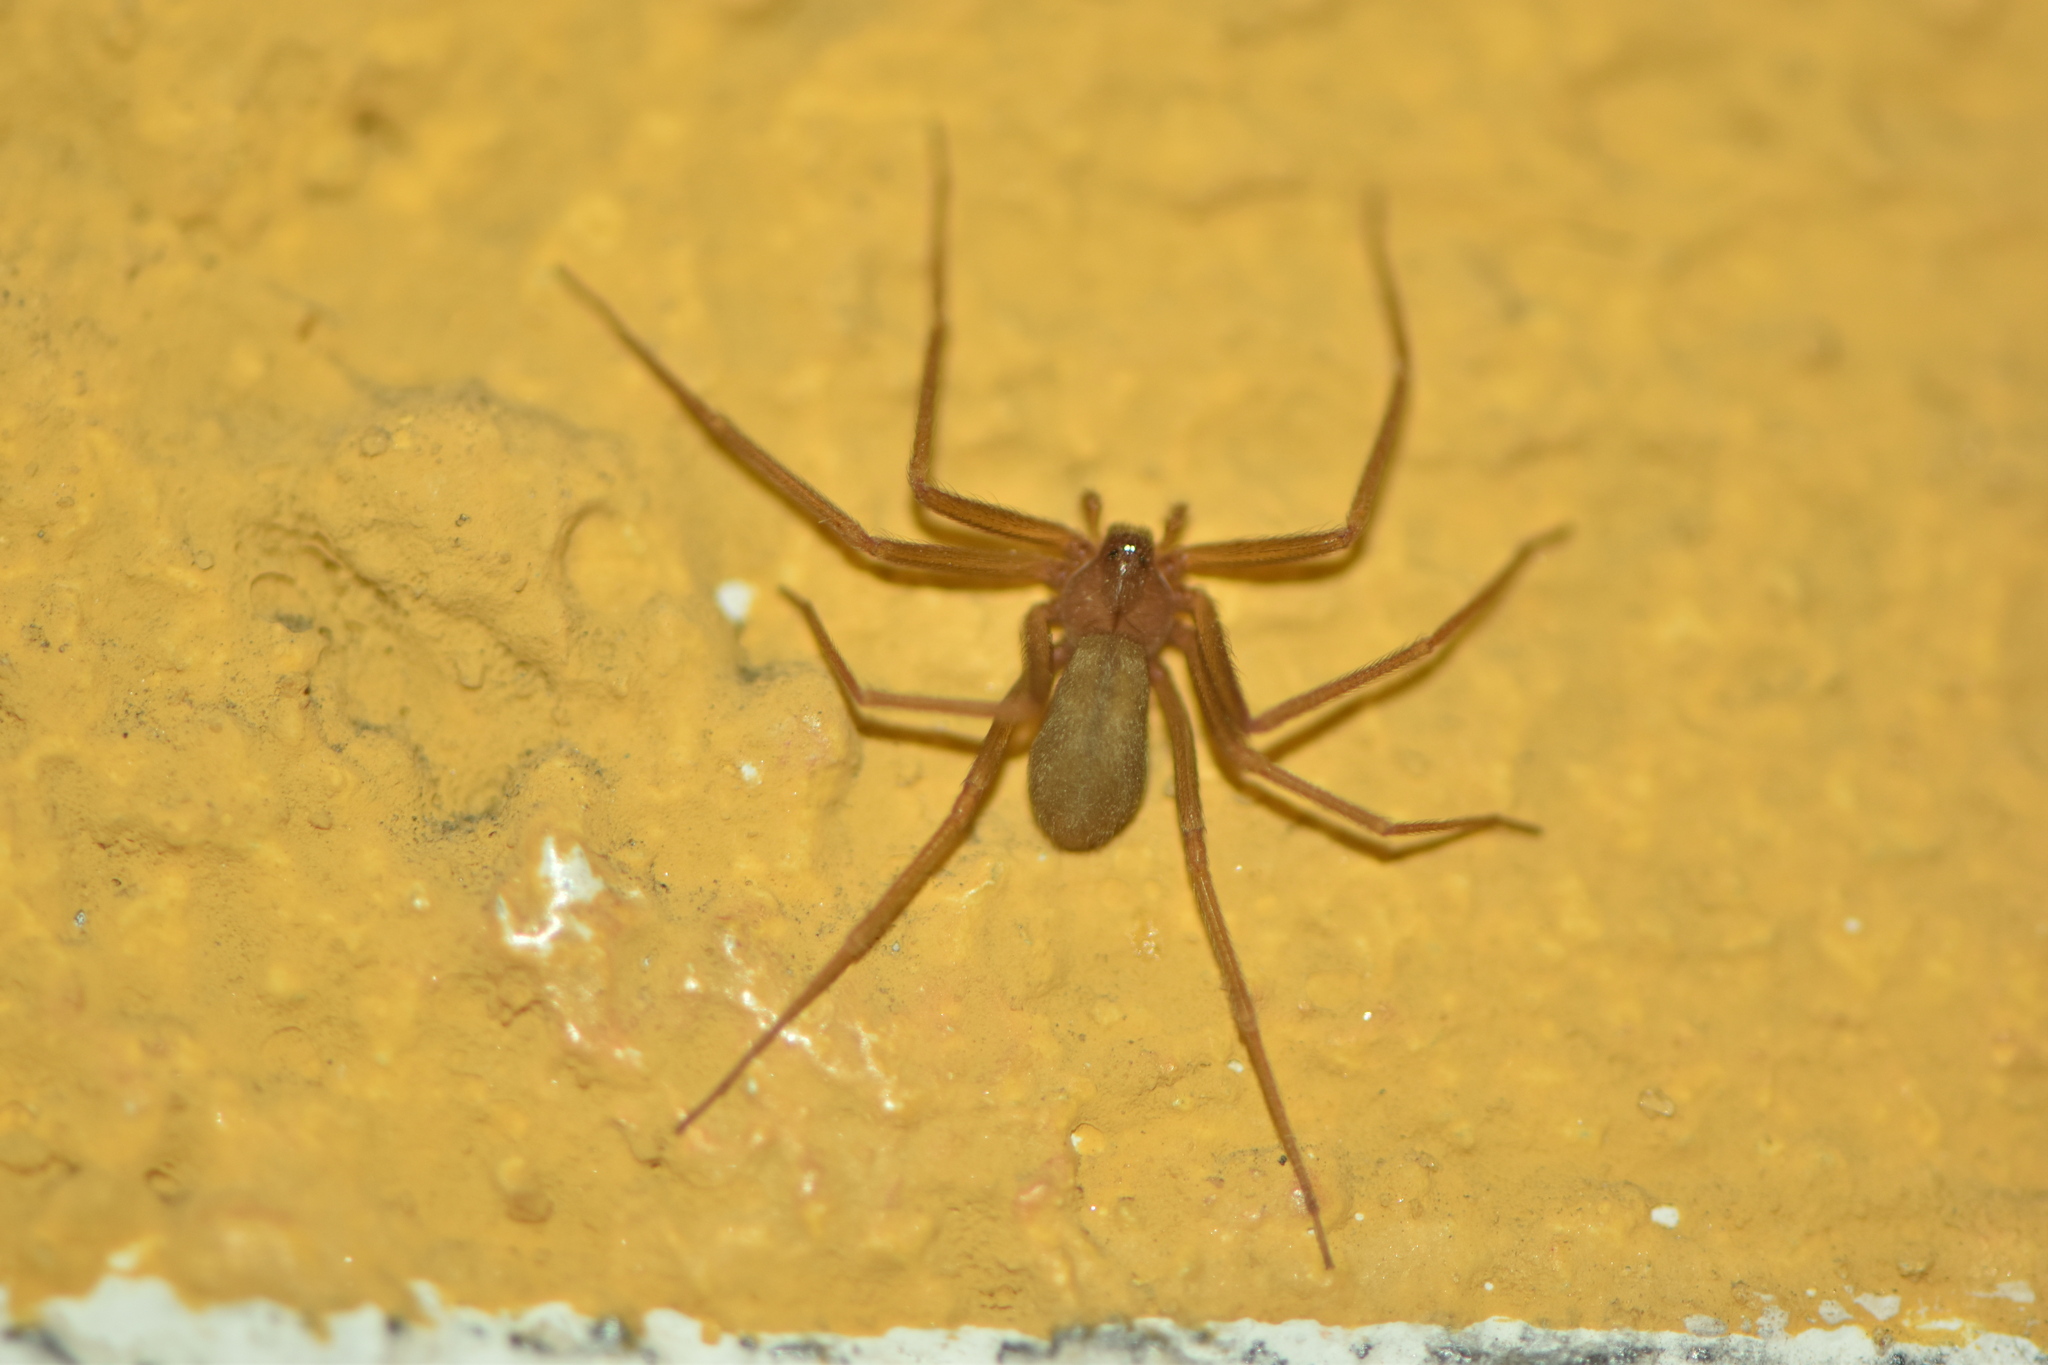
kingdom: Animalia
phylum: Arthropoda
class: Arachnida
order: Araneae
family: Sicariidae
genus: Loxosceles
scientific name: Loxosceles rufescens
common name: Mediterranean recluse spider
